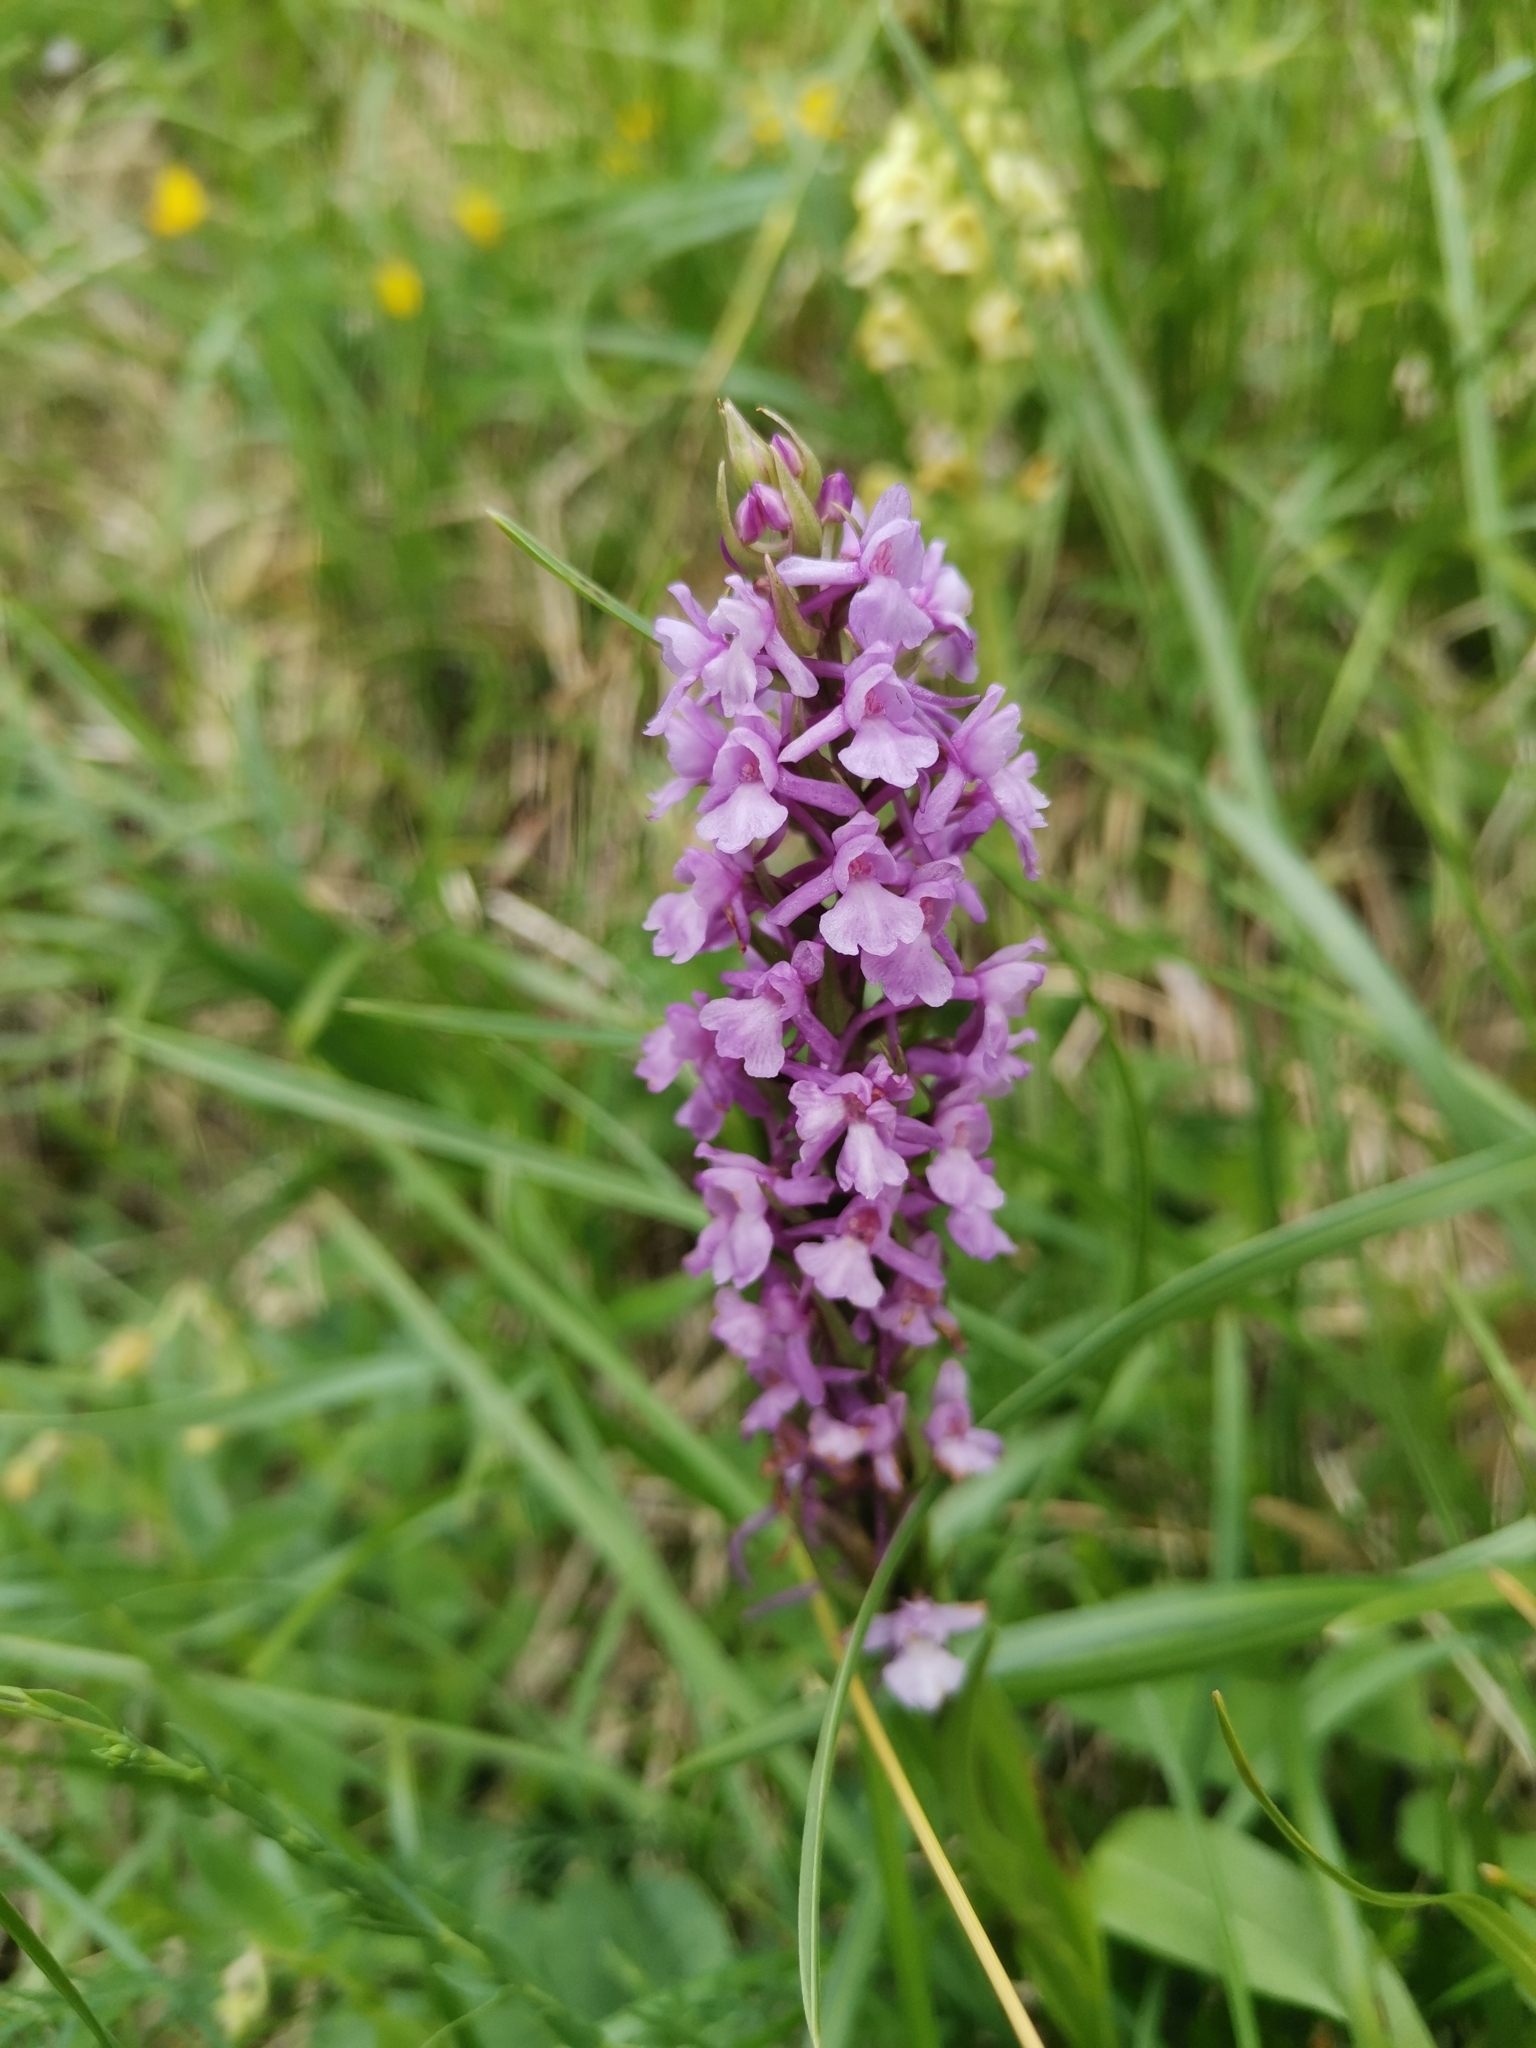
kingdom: Plantae
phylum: Tracheophyta
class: Liliopsida
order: Asparagales
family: Orchidaceae
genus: Gymnadenia
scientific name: Gymnadenia conopsea
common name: Fragrant orchid
